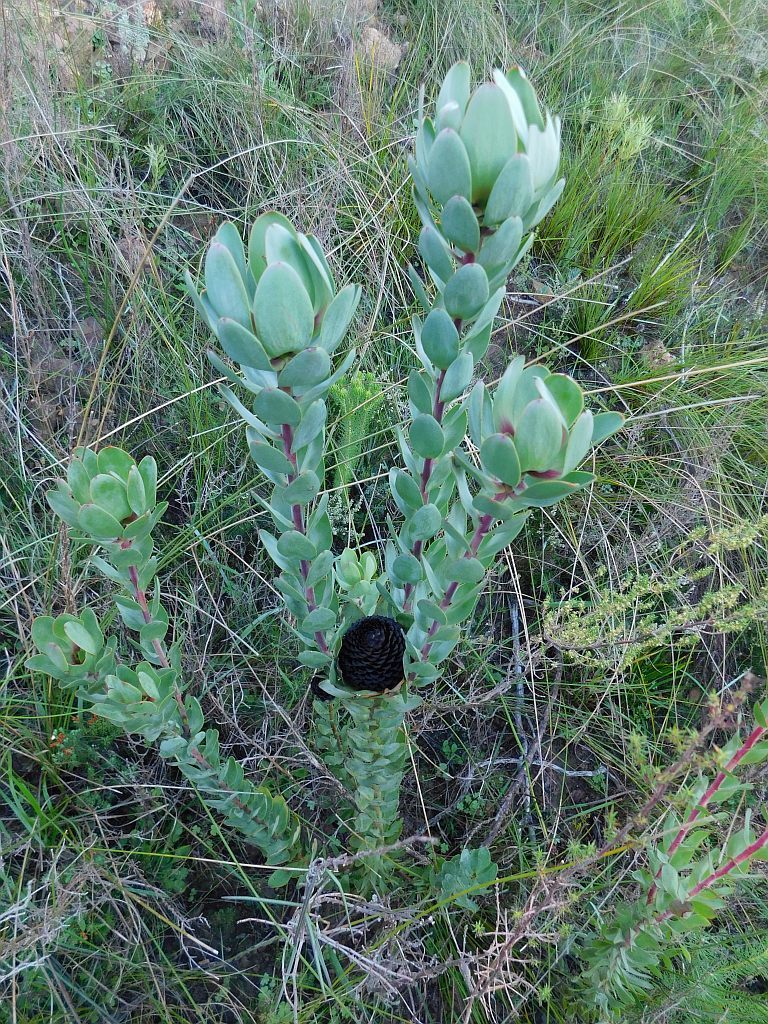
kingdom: Plantae
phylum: Tracheophyta
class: Magnoliopsida
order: Proteales
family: Proteaceae
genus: Leucadendron
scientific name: Leucadendron elimense
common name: Elim conebush
